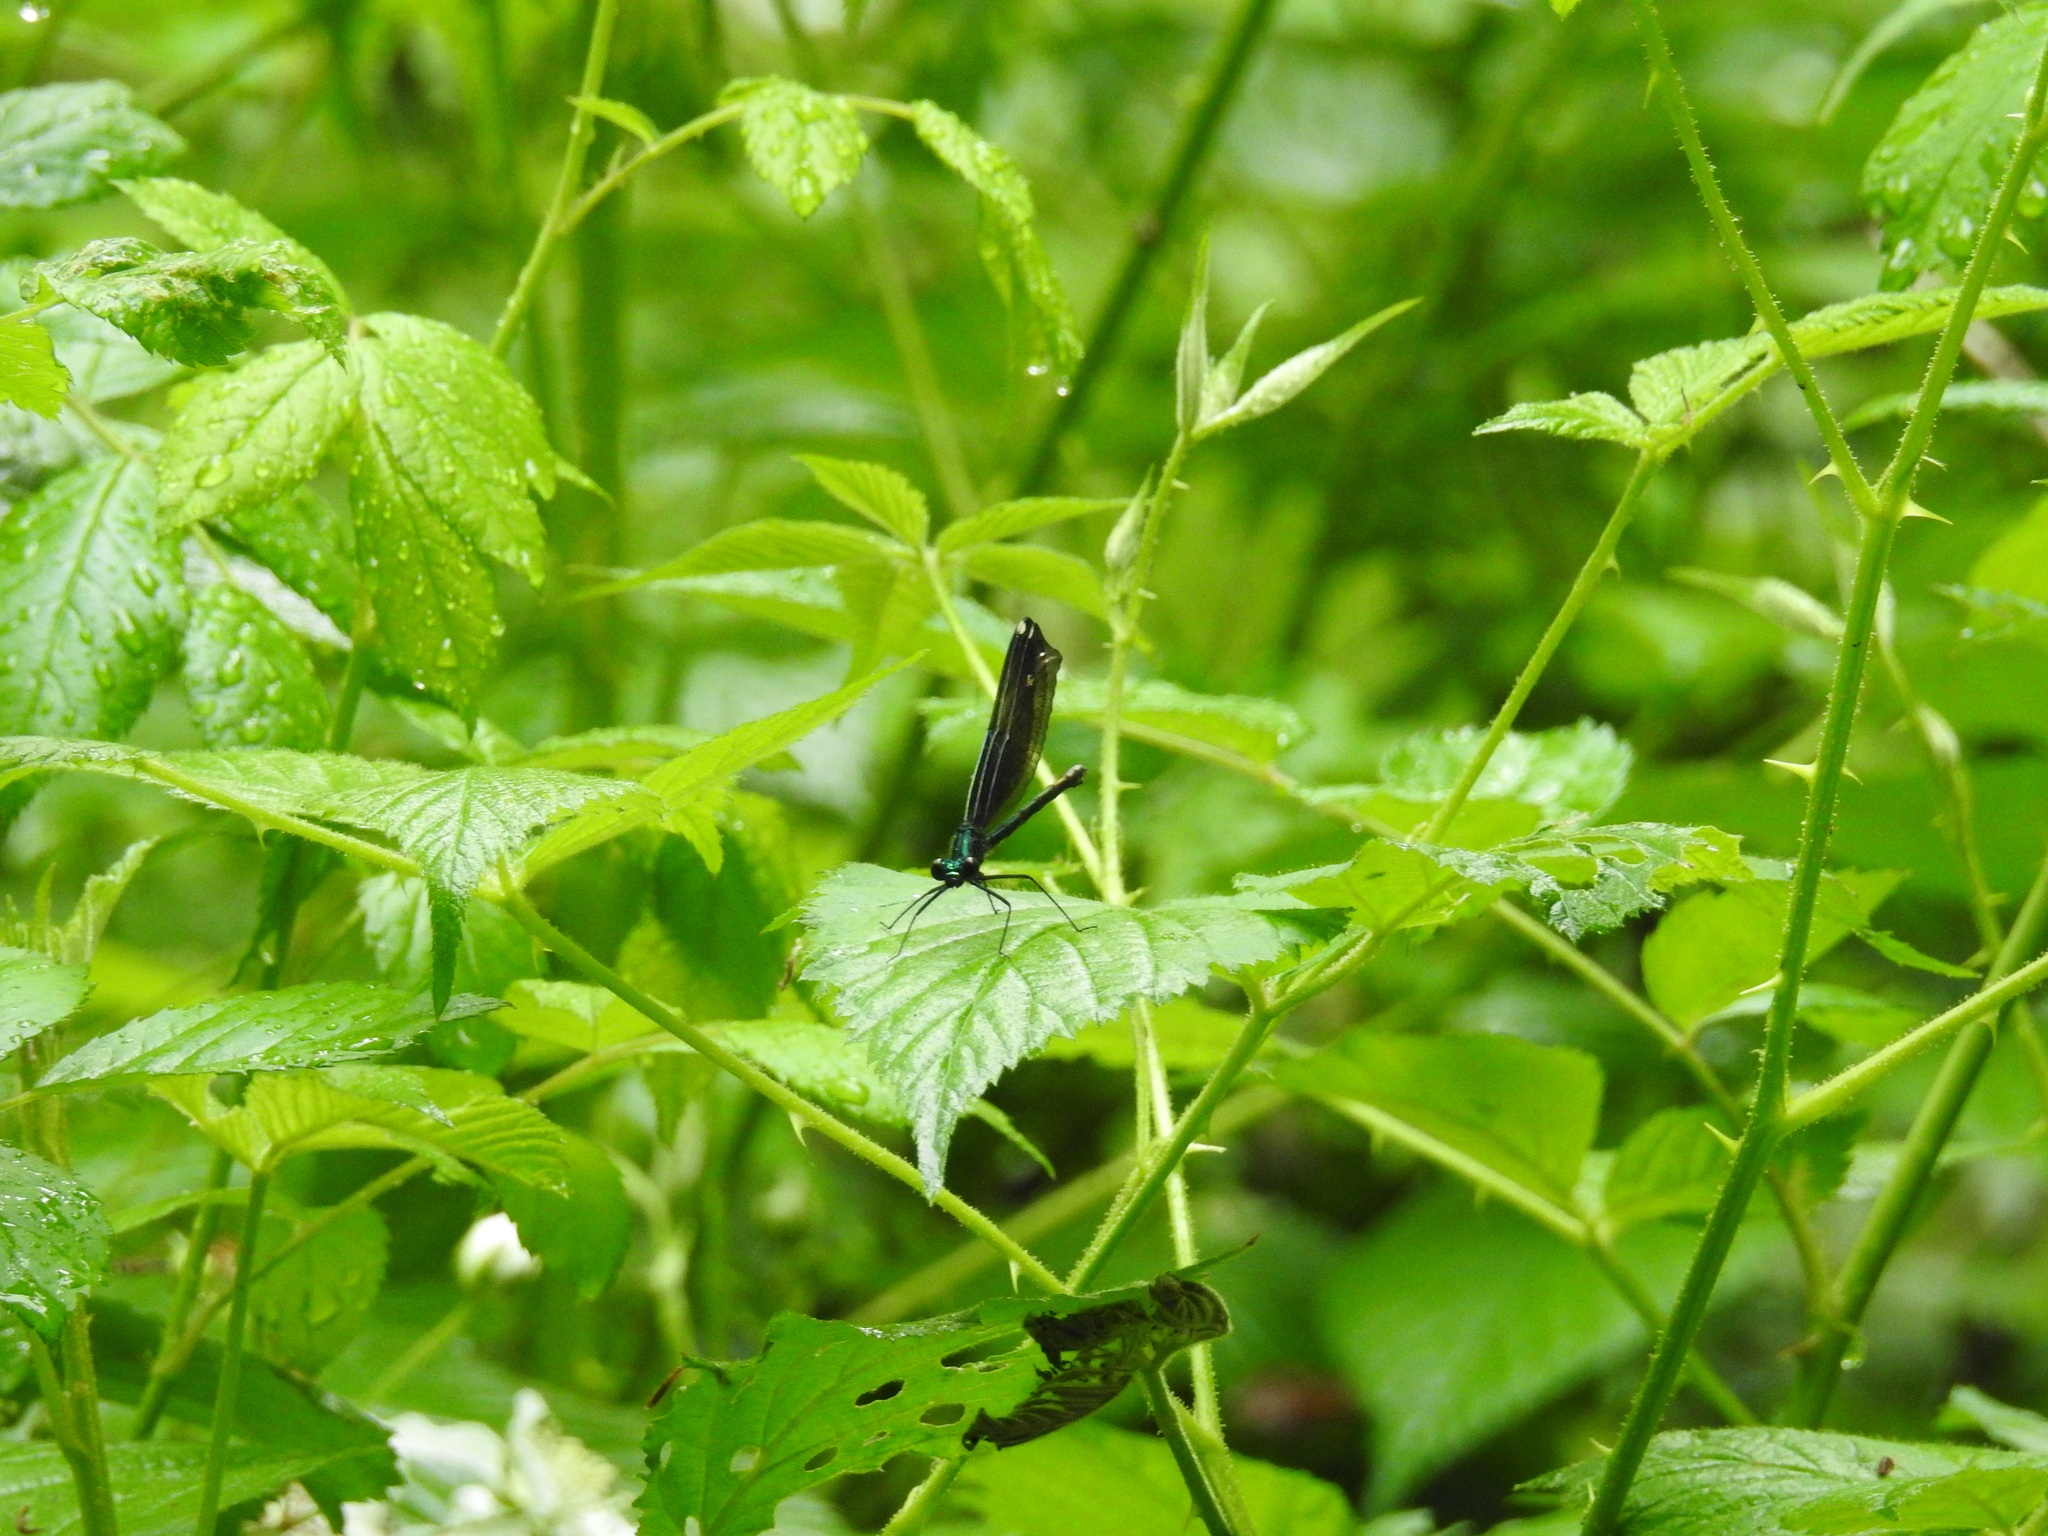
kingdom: Animalia
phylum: Arthropoda
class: Insecta
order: Odonata
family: Calopterygidae
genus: Calopteryx
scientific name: Calopteryx maculata
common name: Ebony jewelwing
